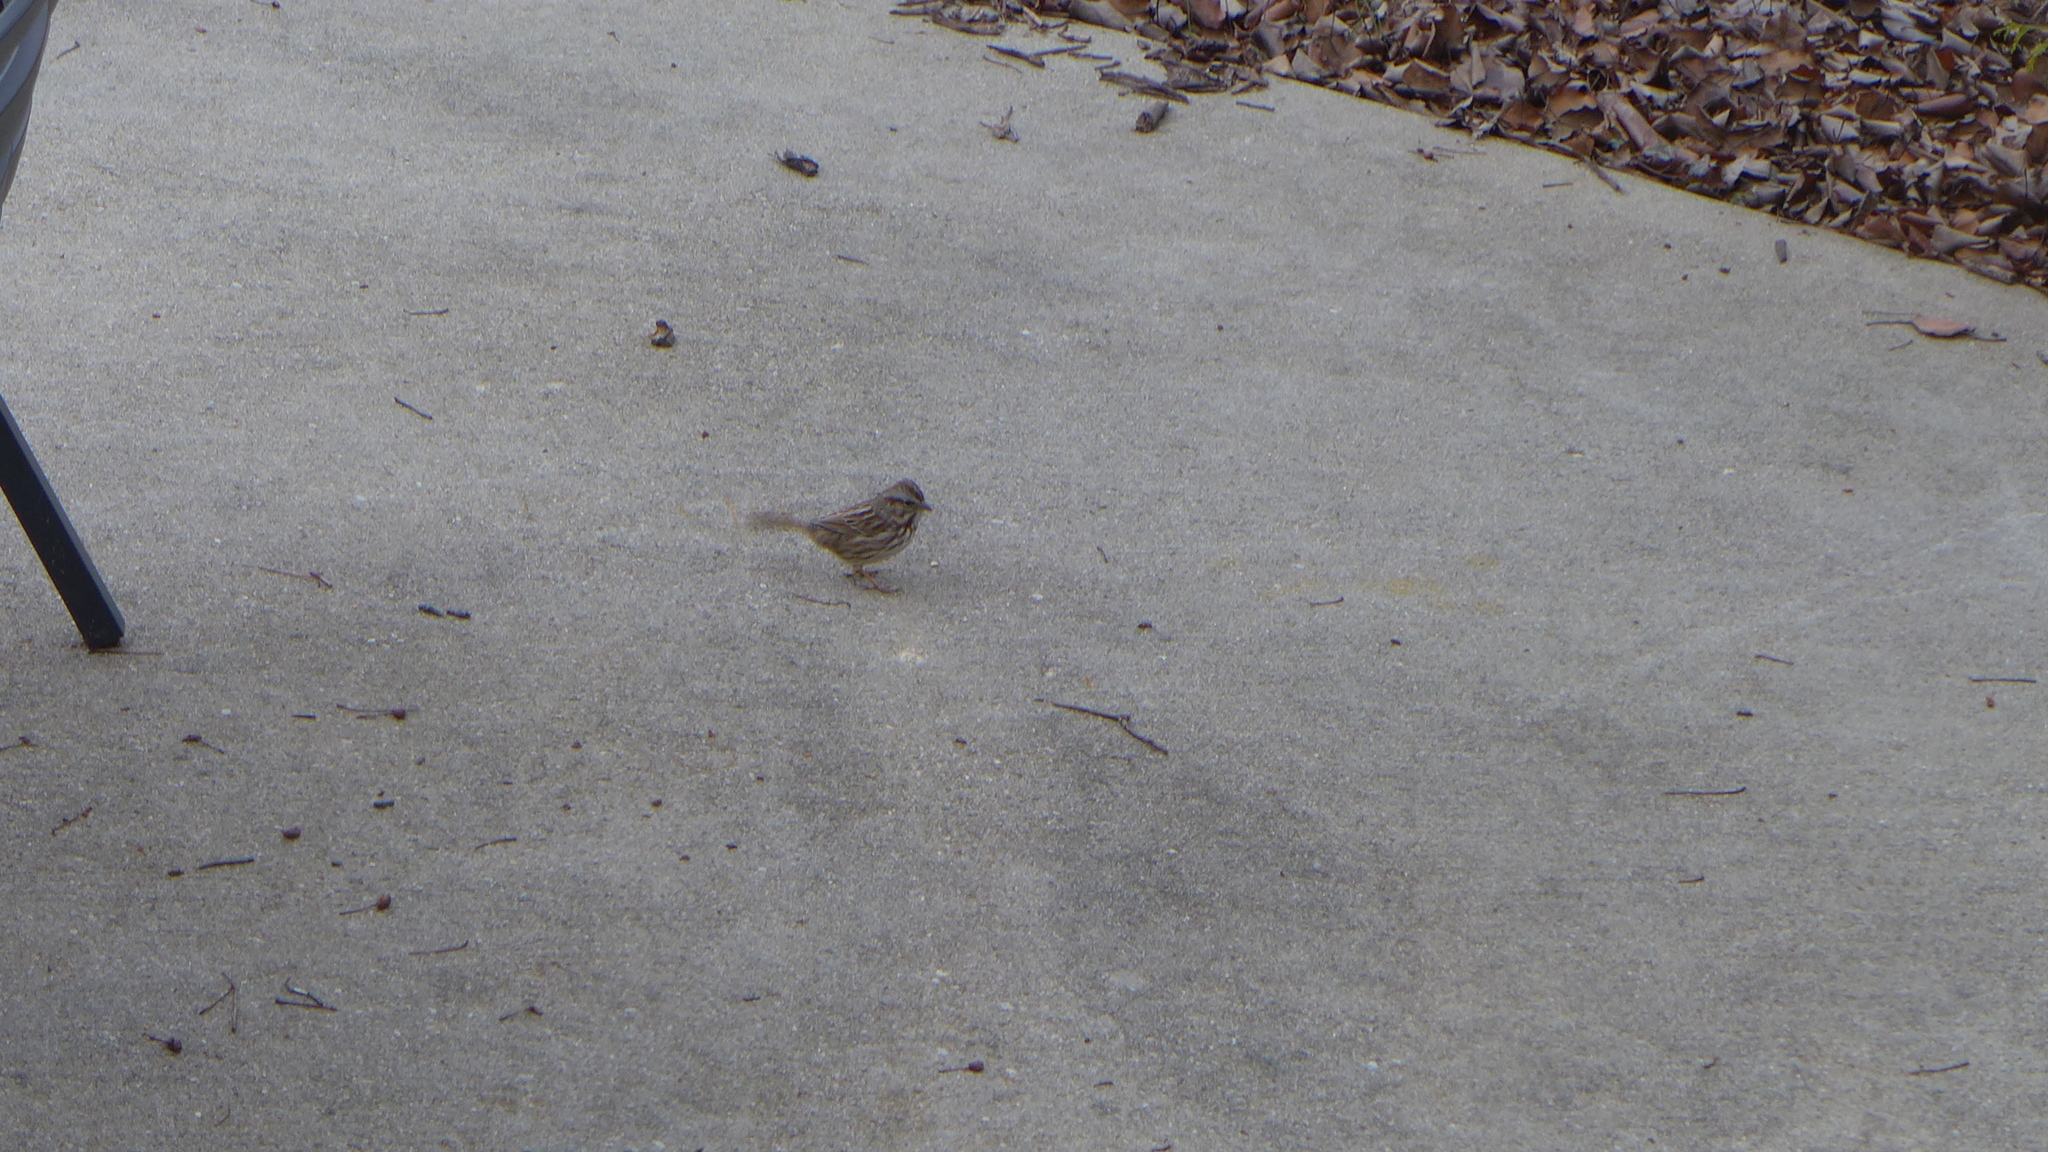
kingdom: Animalia
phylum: Chordata
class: Aves
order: Passeriformes
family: Passerellidae
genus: Melospiza
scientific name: Melospiza melodia
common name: Song sparrow
